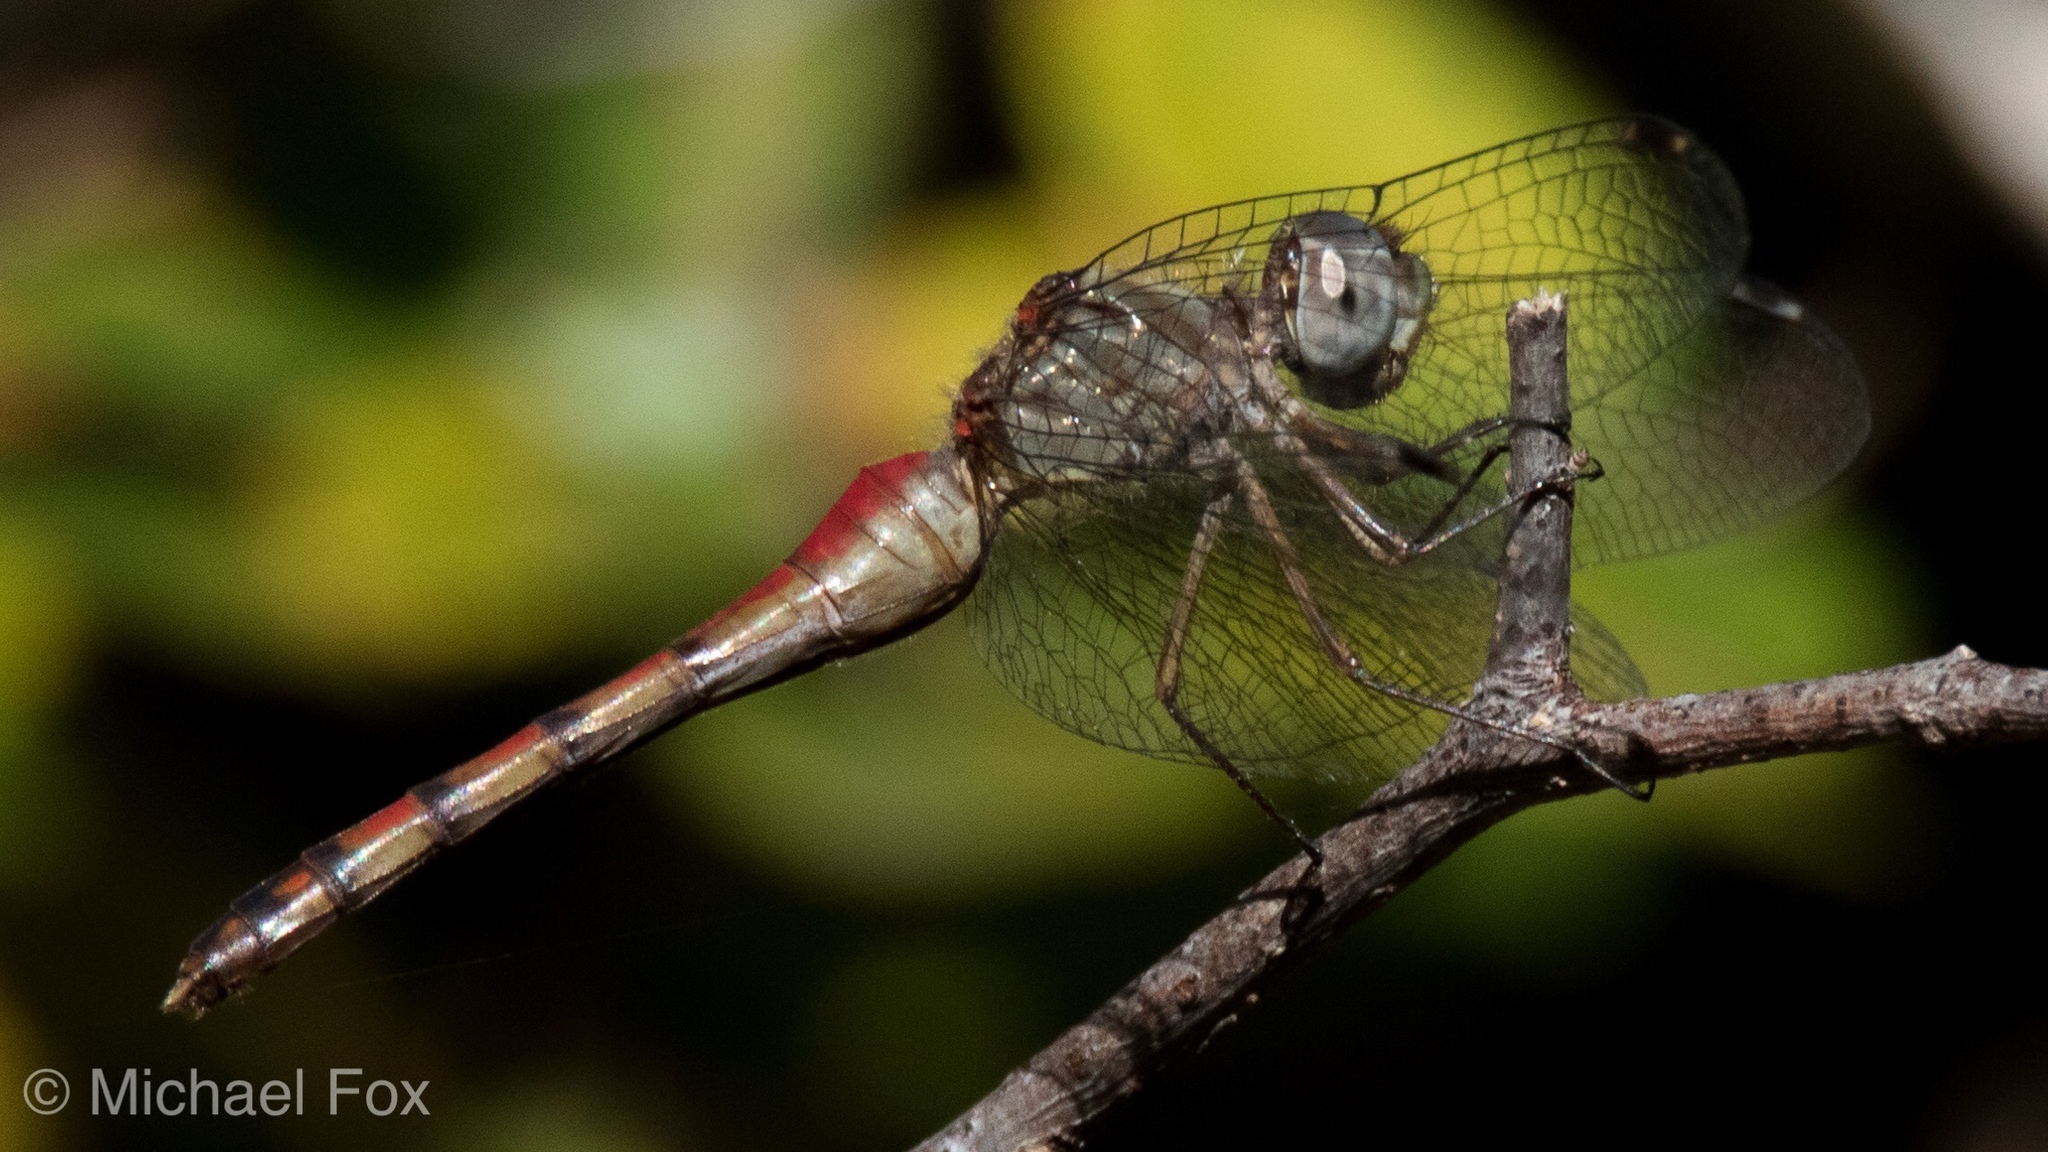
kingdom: Animalia
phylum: Arthropoda
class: Insecta
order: Odonata
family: Libellulidae
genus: Sympetrum
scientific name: Sympetrum ambiguum
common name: Blue-faced meadowhawk
